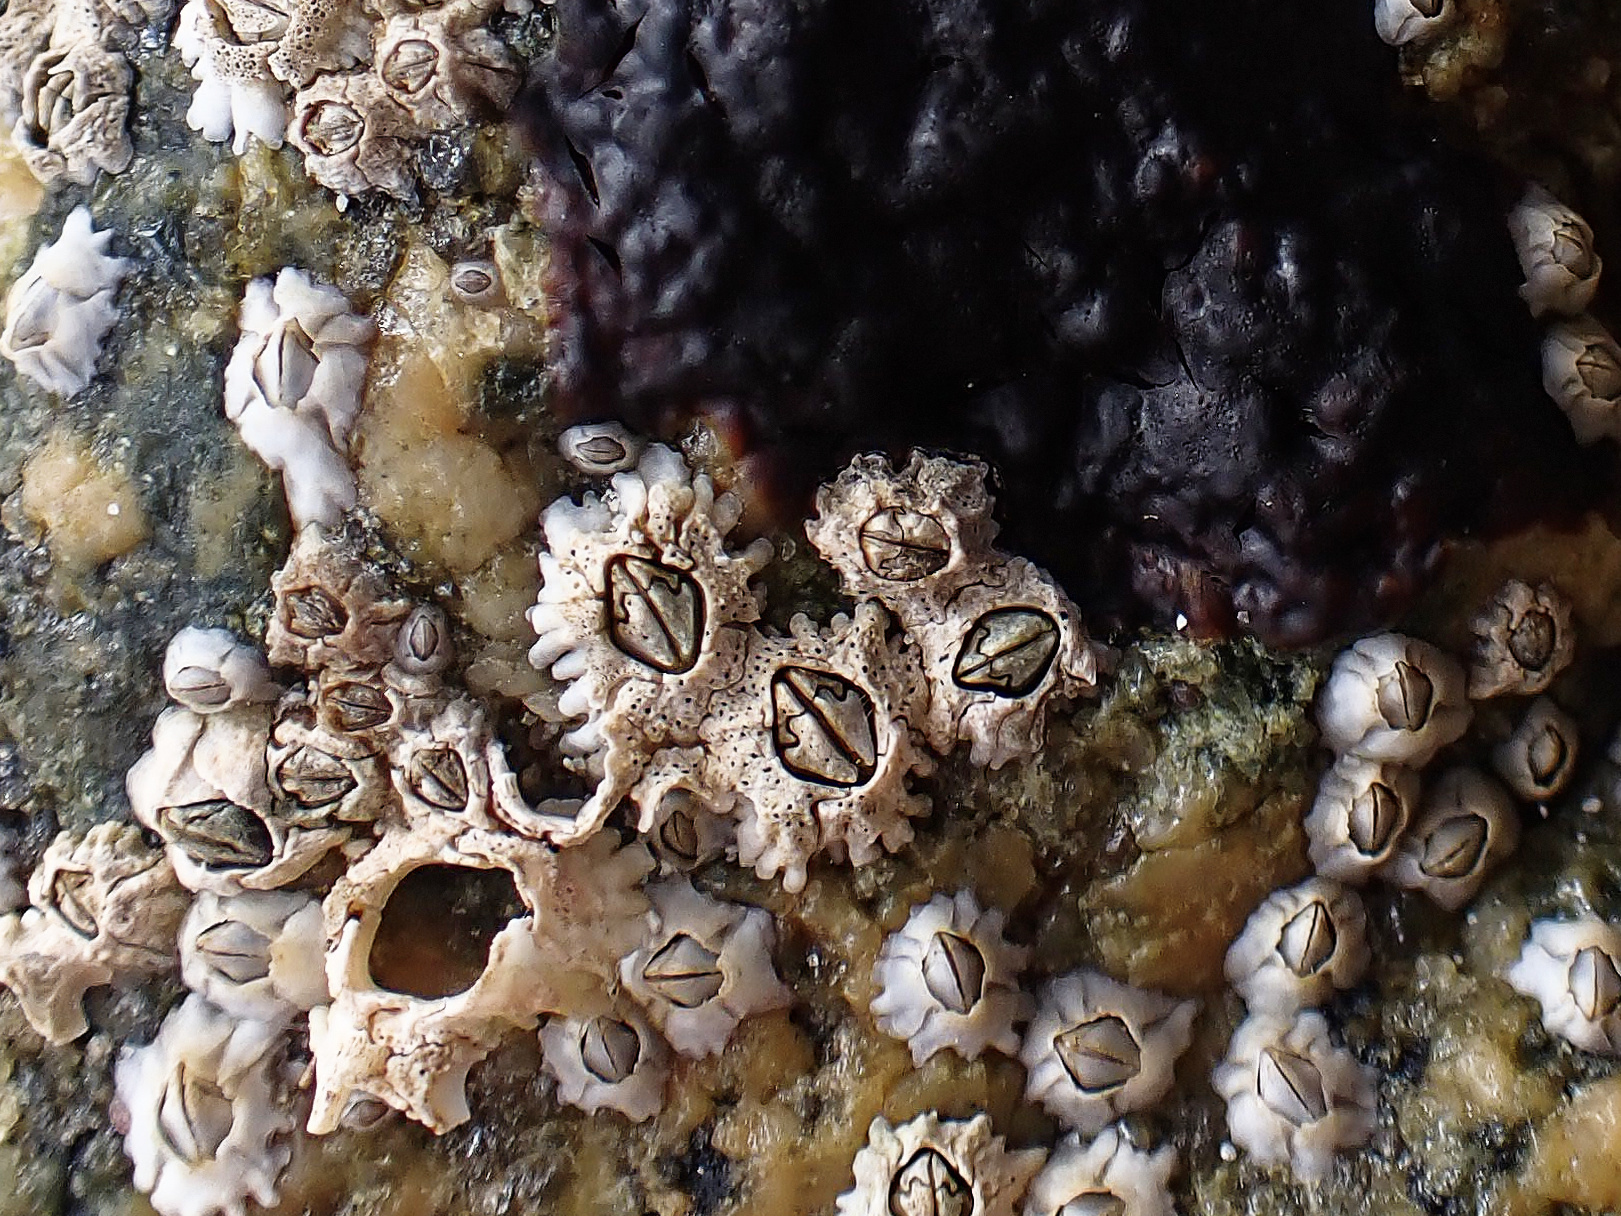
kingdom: Animalia
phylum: Arthropoda
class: Maxillopoda
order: Sessilia
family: Archaeobalanidae
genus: Semibalanus
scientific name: Semibalanus balanoides
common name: Acorn barnacle
